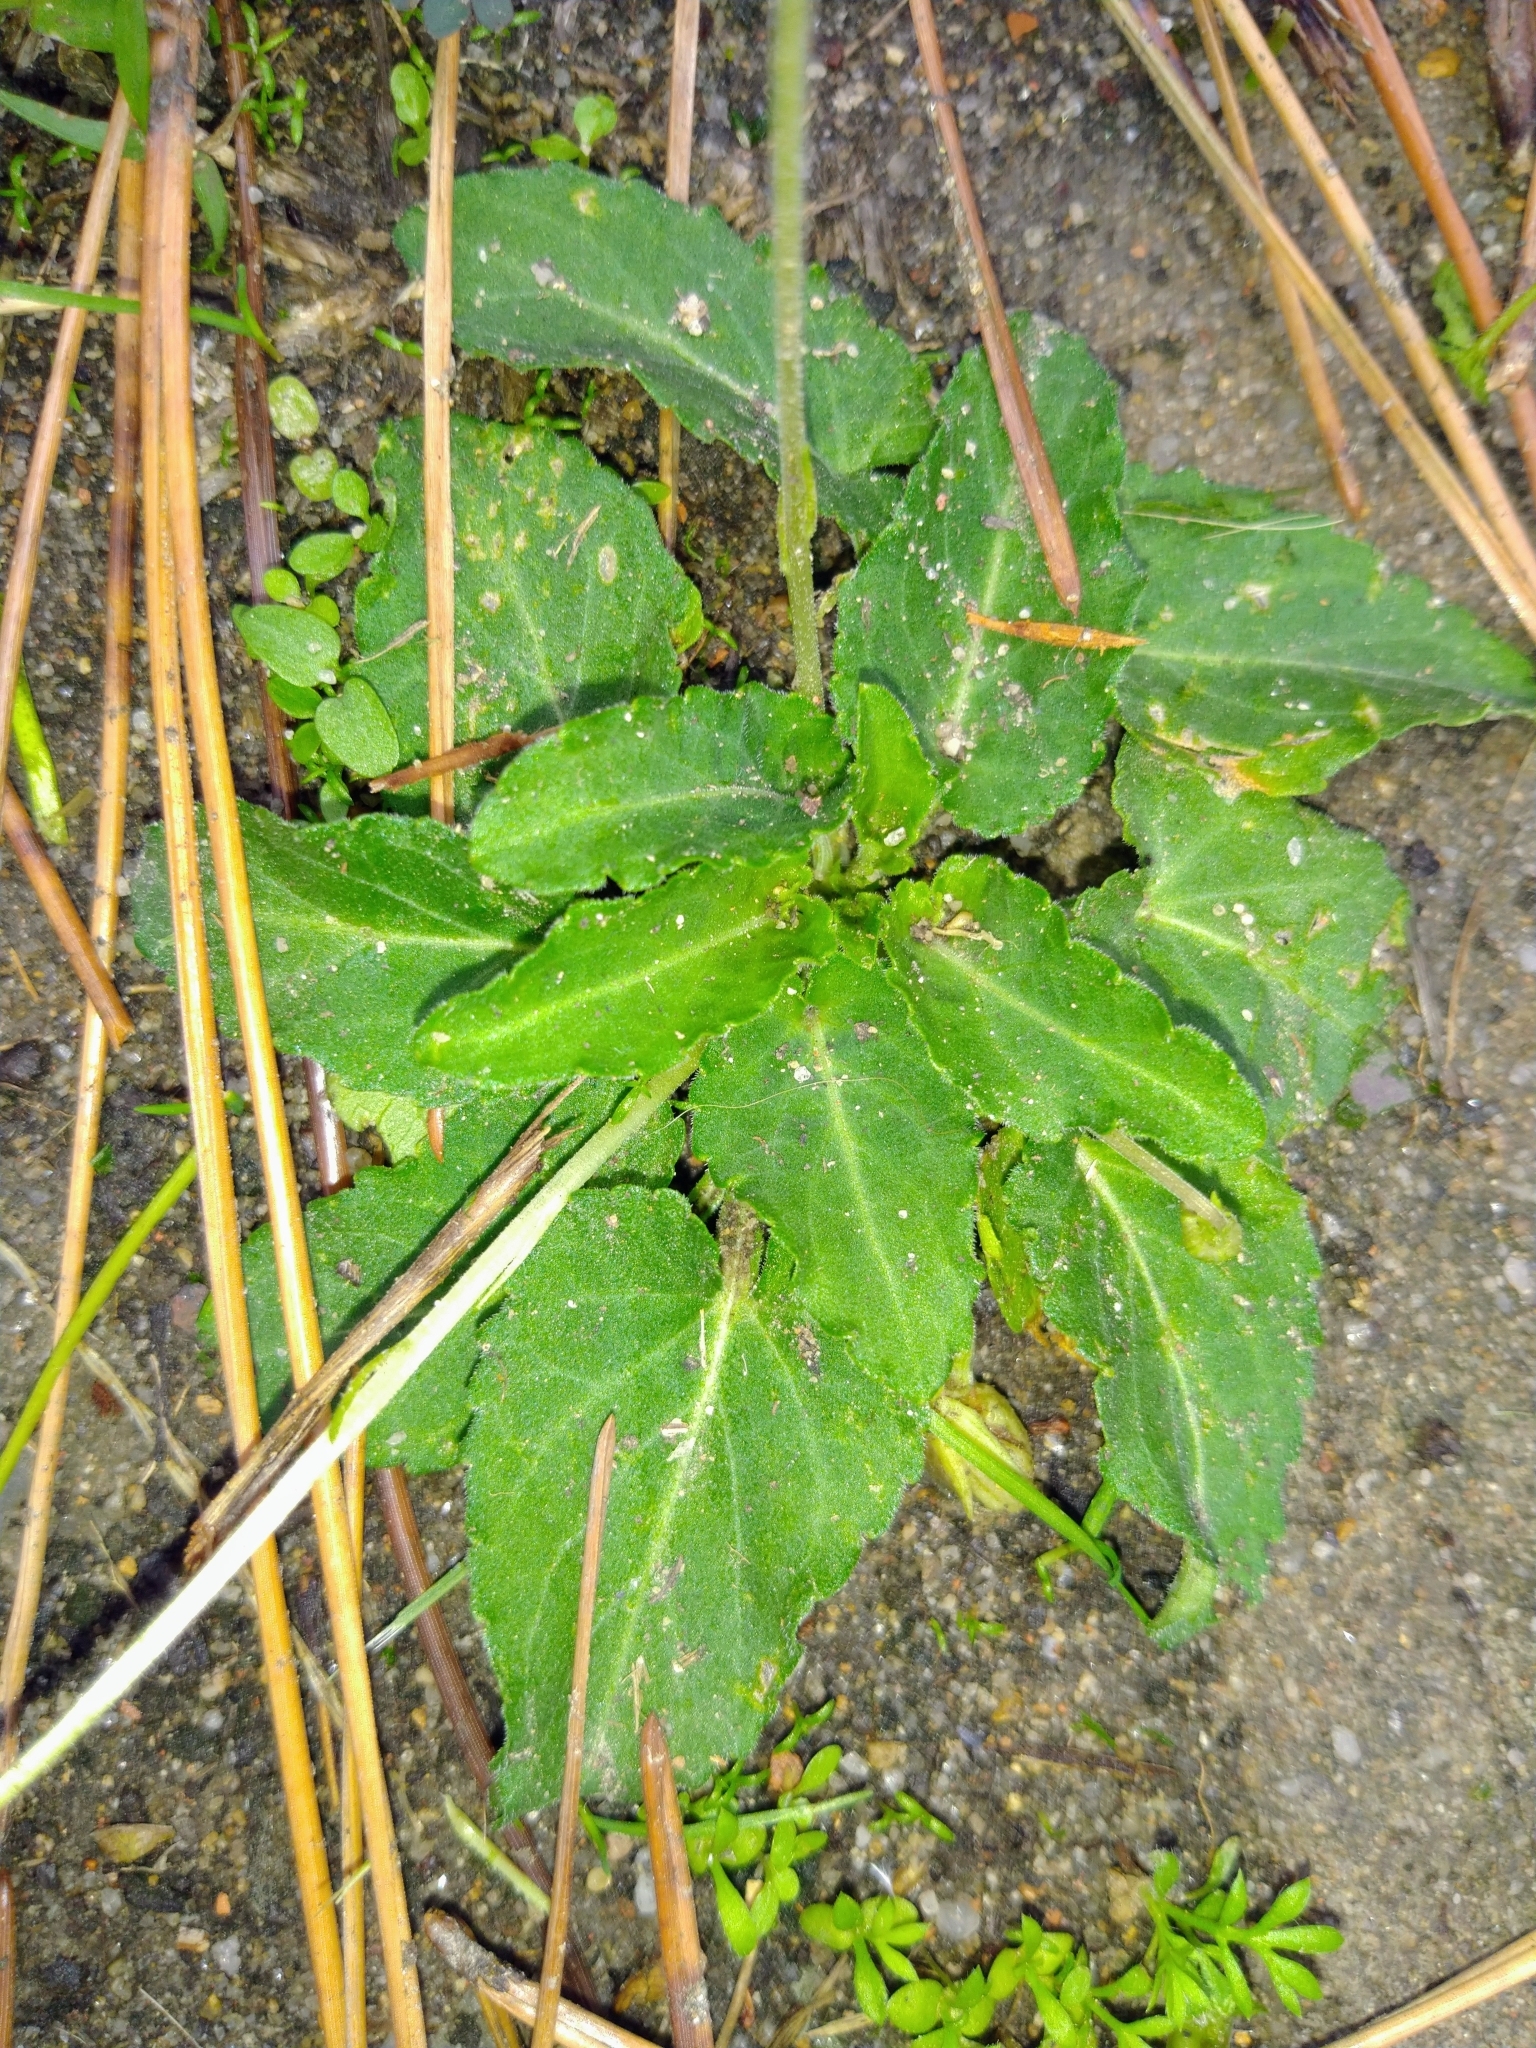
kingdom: Plantae
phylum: Tracheophyta
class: Magnoliopsida
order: Malpighiales
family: Violaceae
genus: Viola
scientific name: Viola
